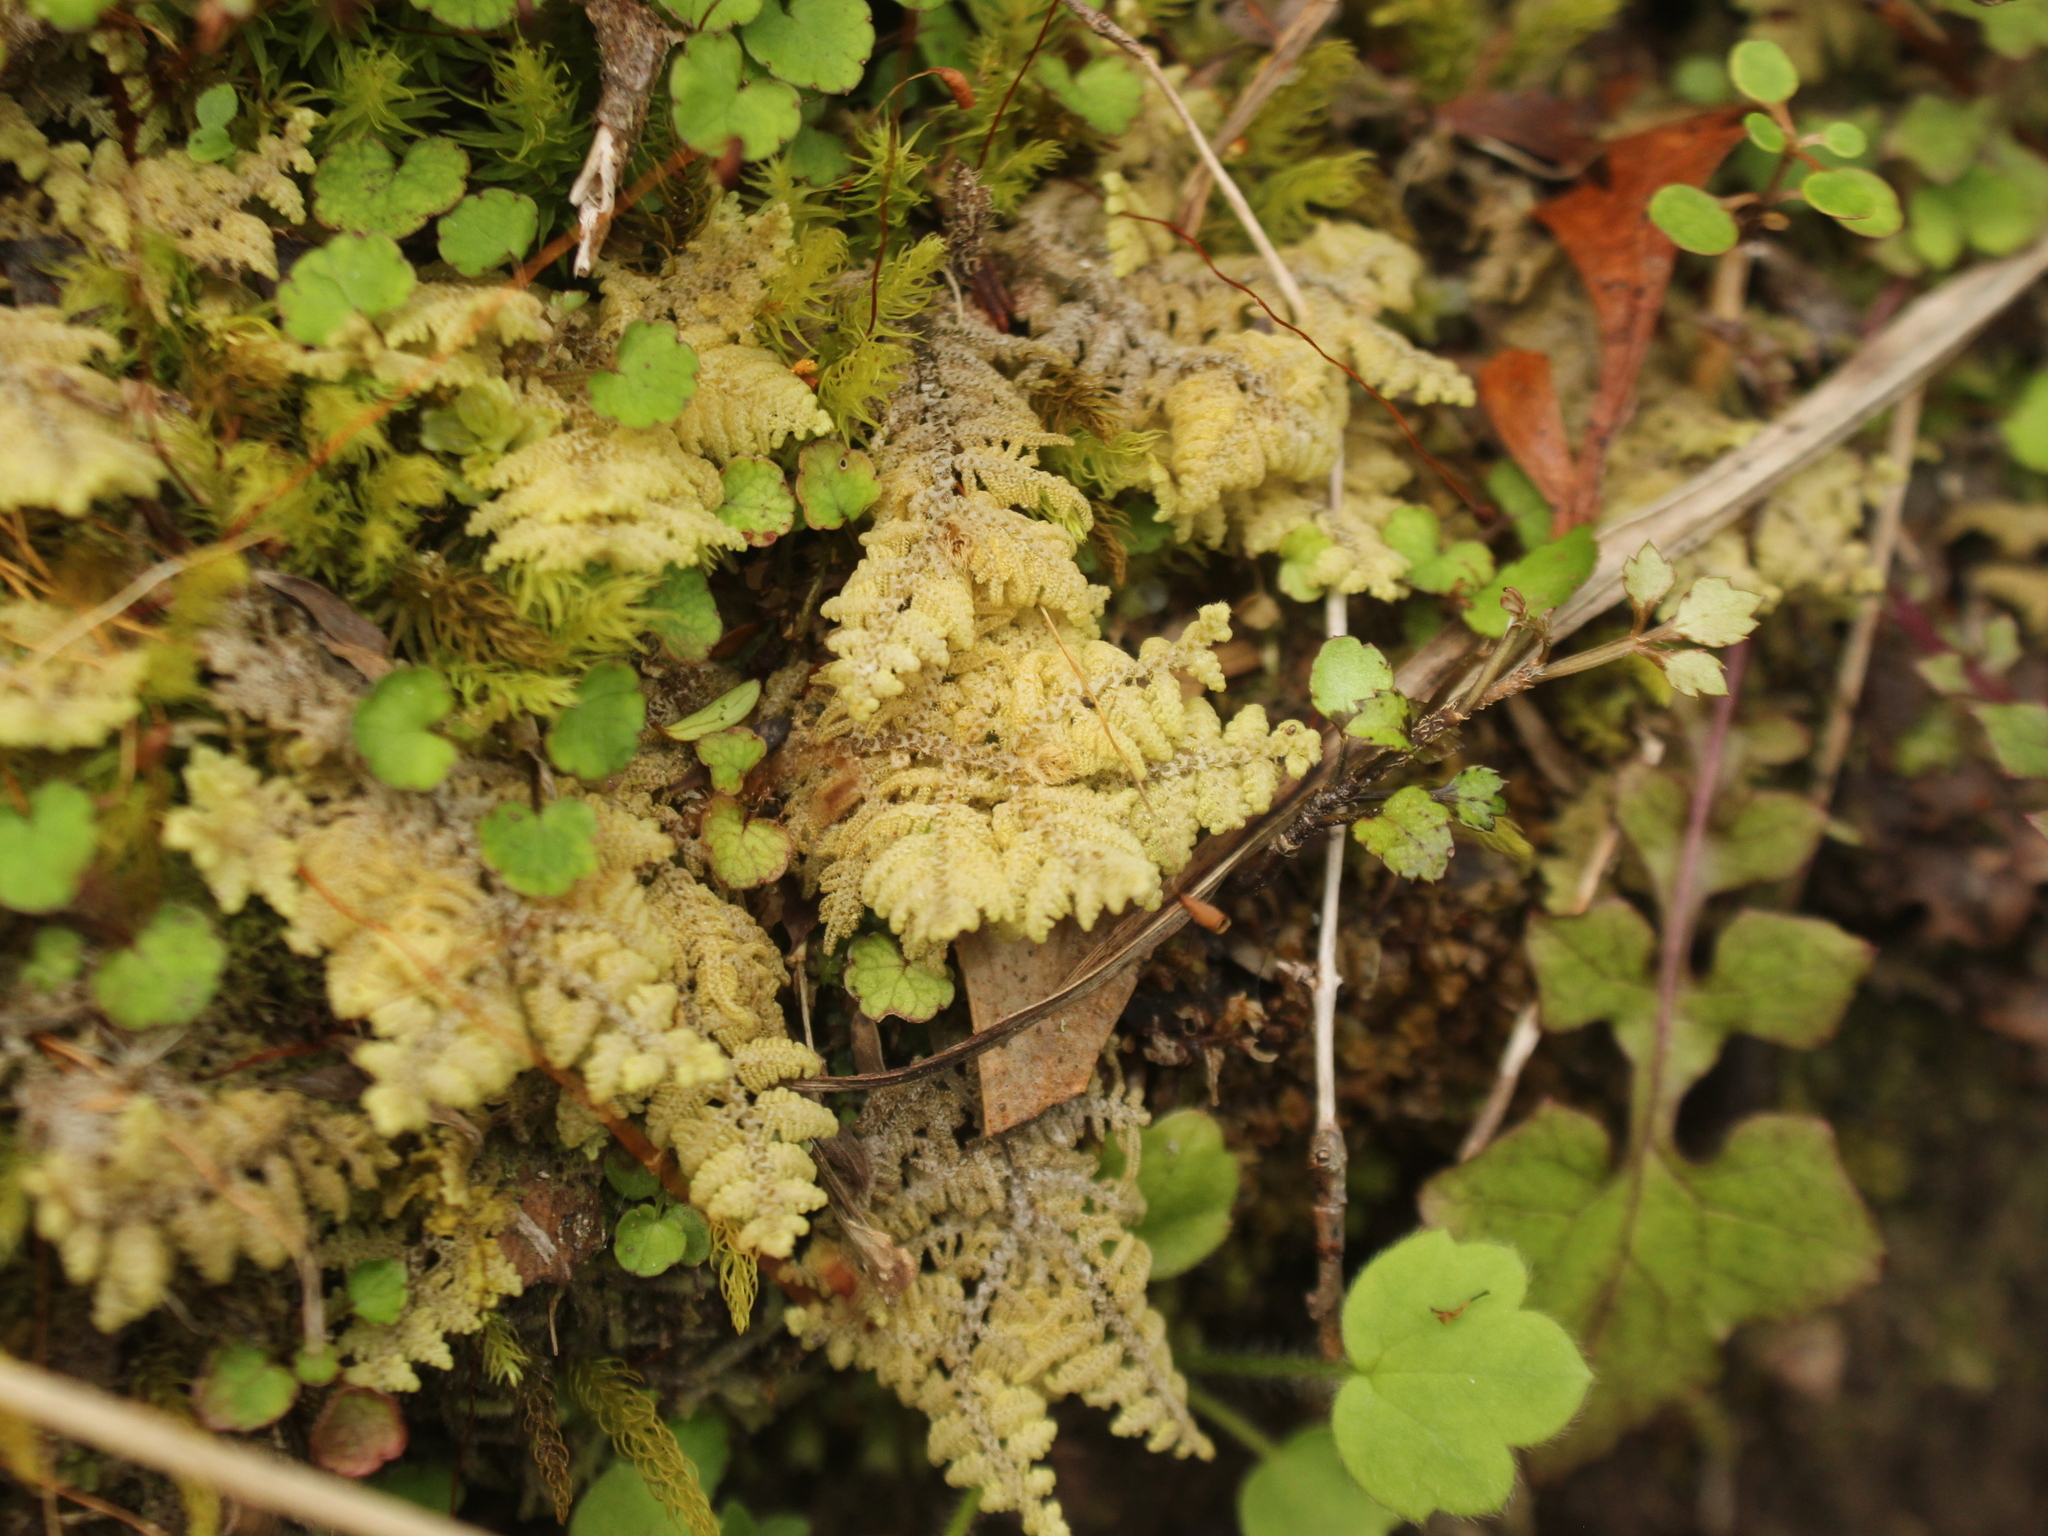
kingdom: Plantae
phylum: Marchantiophyta
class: Jungermanniopsida
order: Jungermanniales
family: Trichocoleaceae
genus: Trichocolea
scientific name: Trichocolea mollissima
